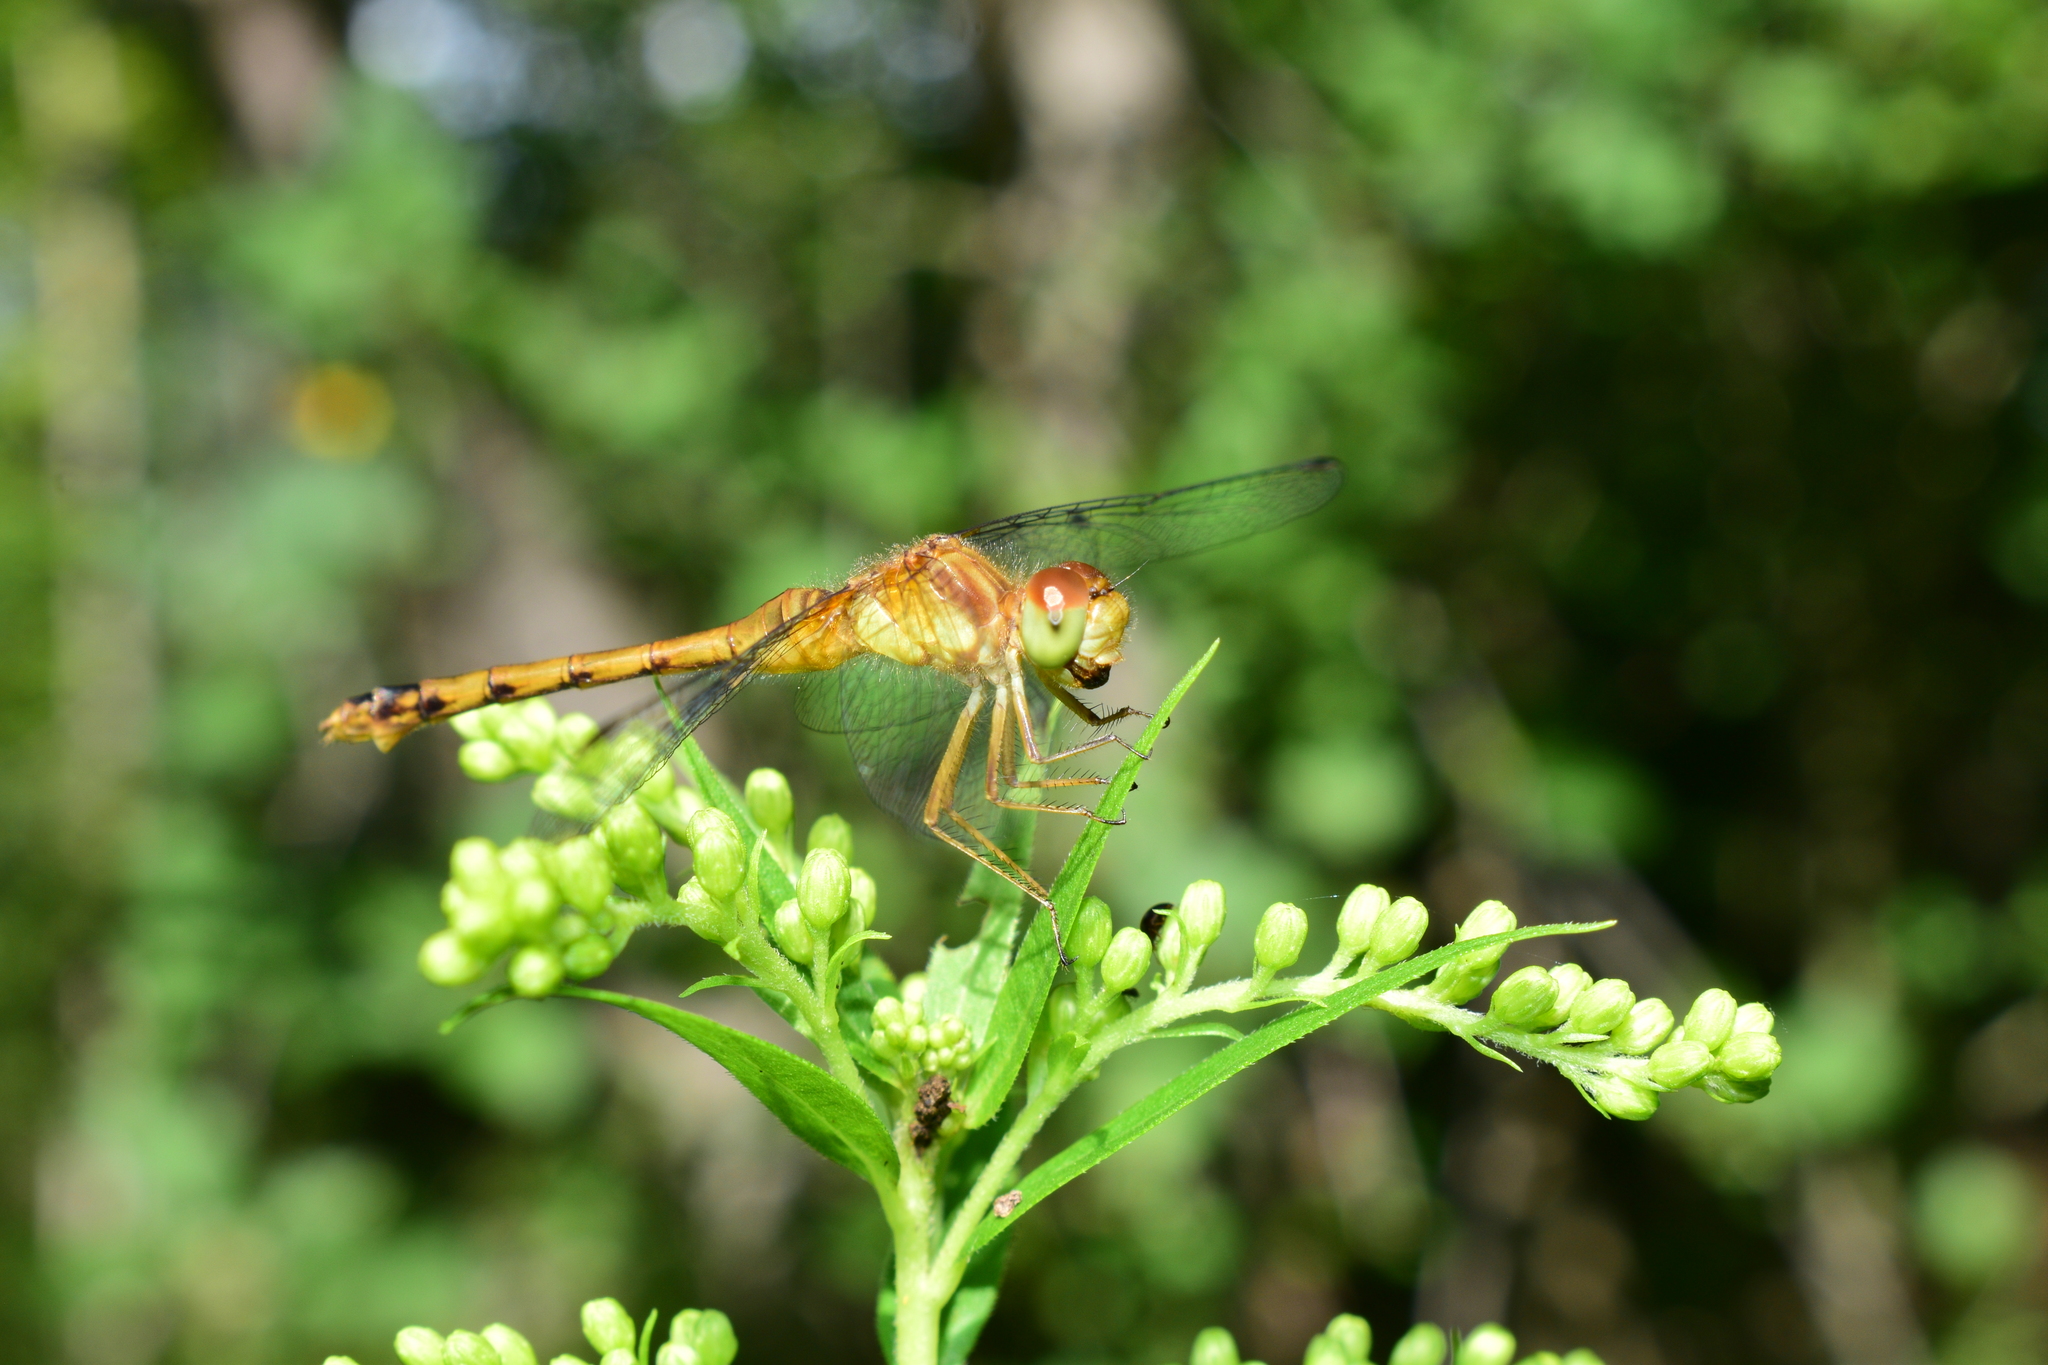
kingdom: Animalia
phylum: Arthropoda
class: Insecta
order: Odonata
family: Libellulidae
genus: Sympetrum
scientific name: Sympetrum vicinum
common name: Autumn meadowhawk
